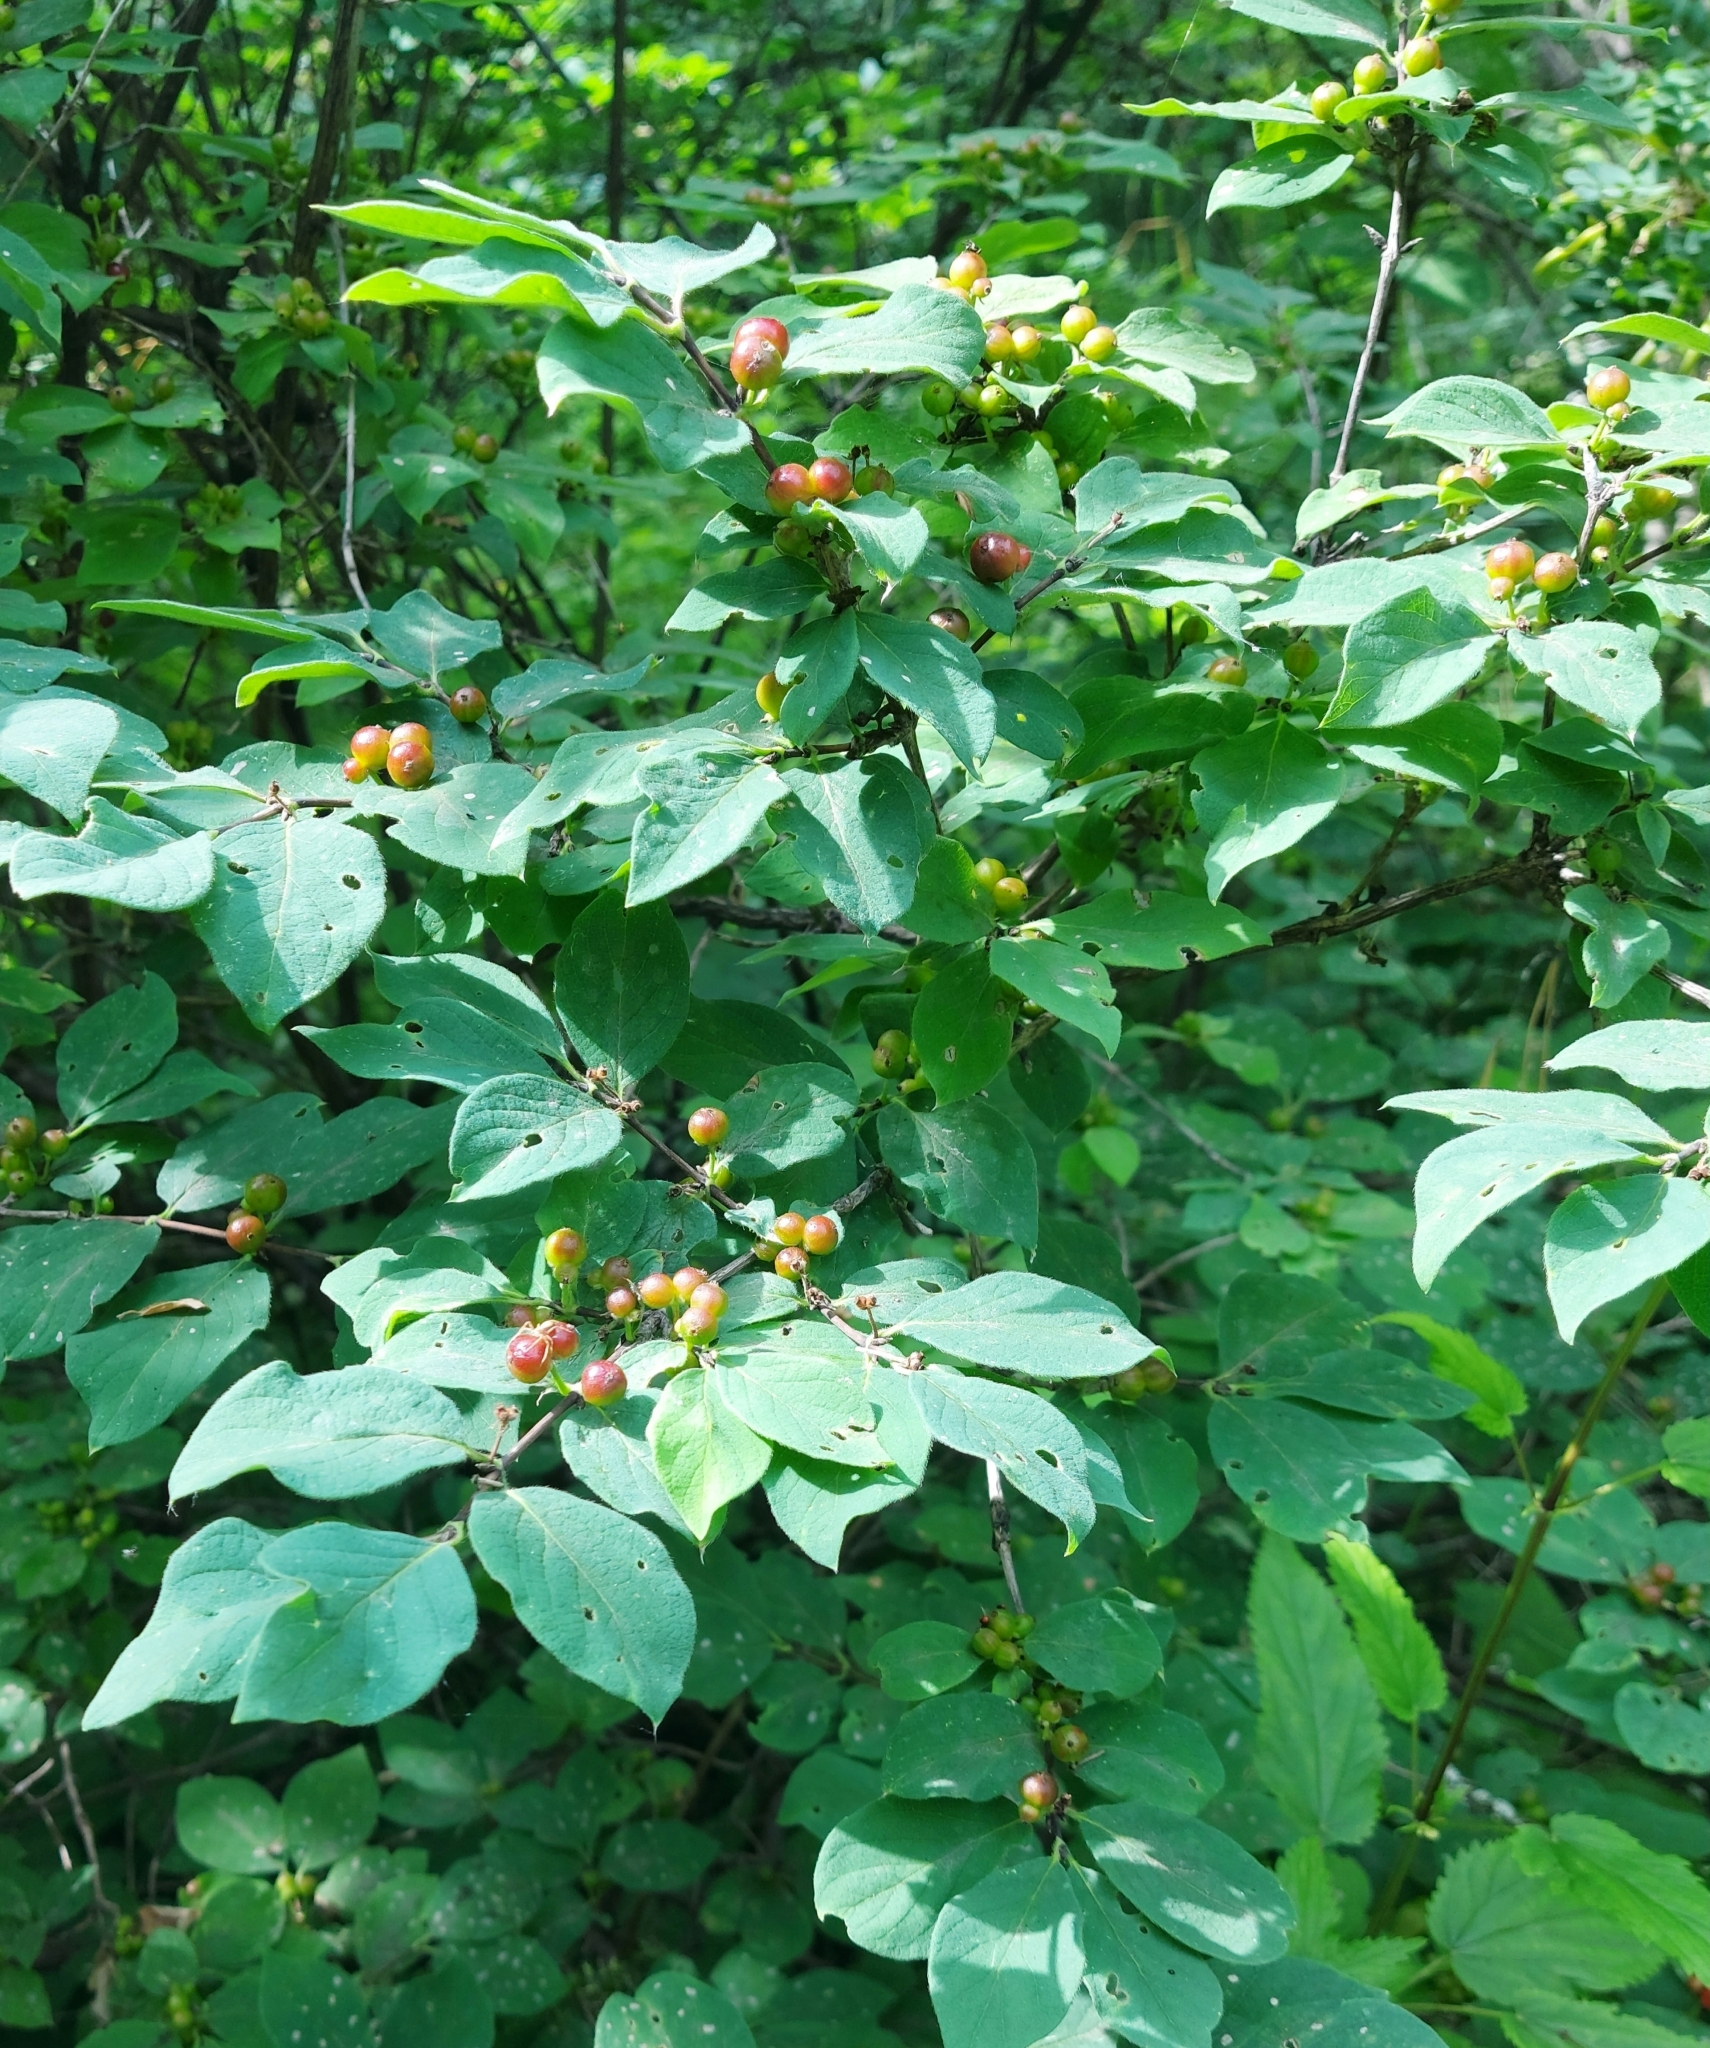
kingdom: Plantae
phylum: Tracheophyta
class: Magnoliopsida
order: Dipsacales
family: Caprifoliaceae
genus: Lonicera
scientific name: Lonicera tatarica
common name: Tatarian honeysuckle
